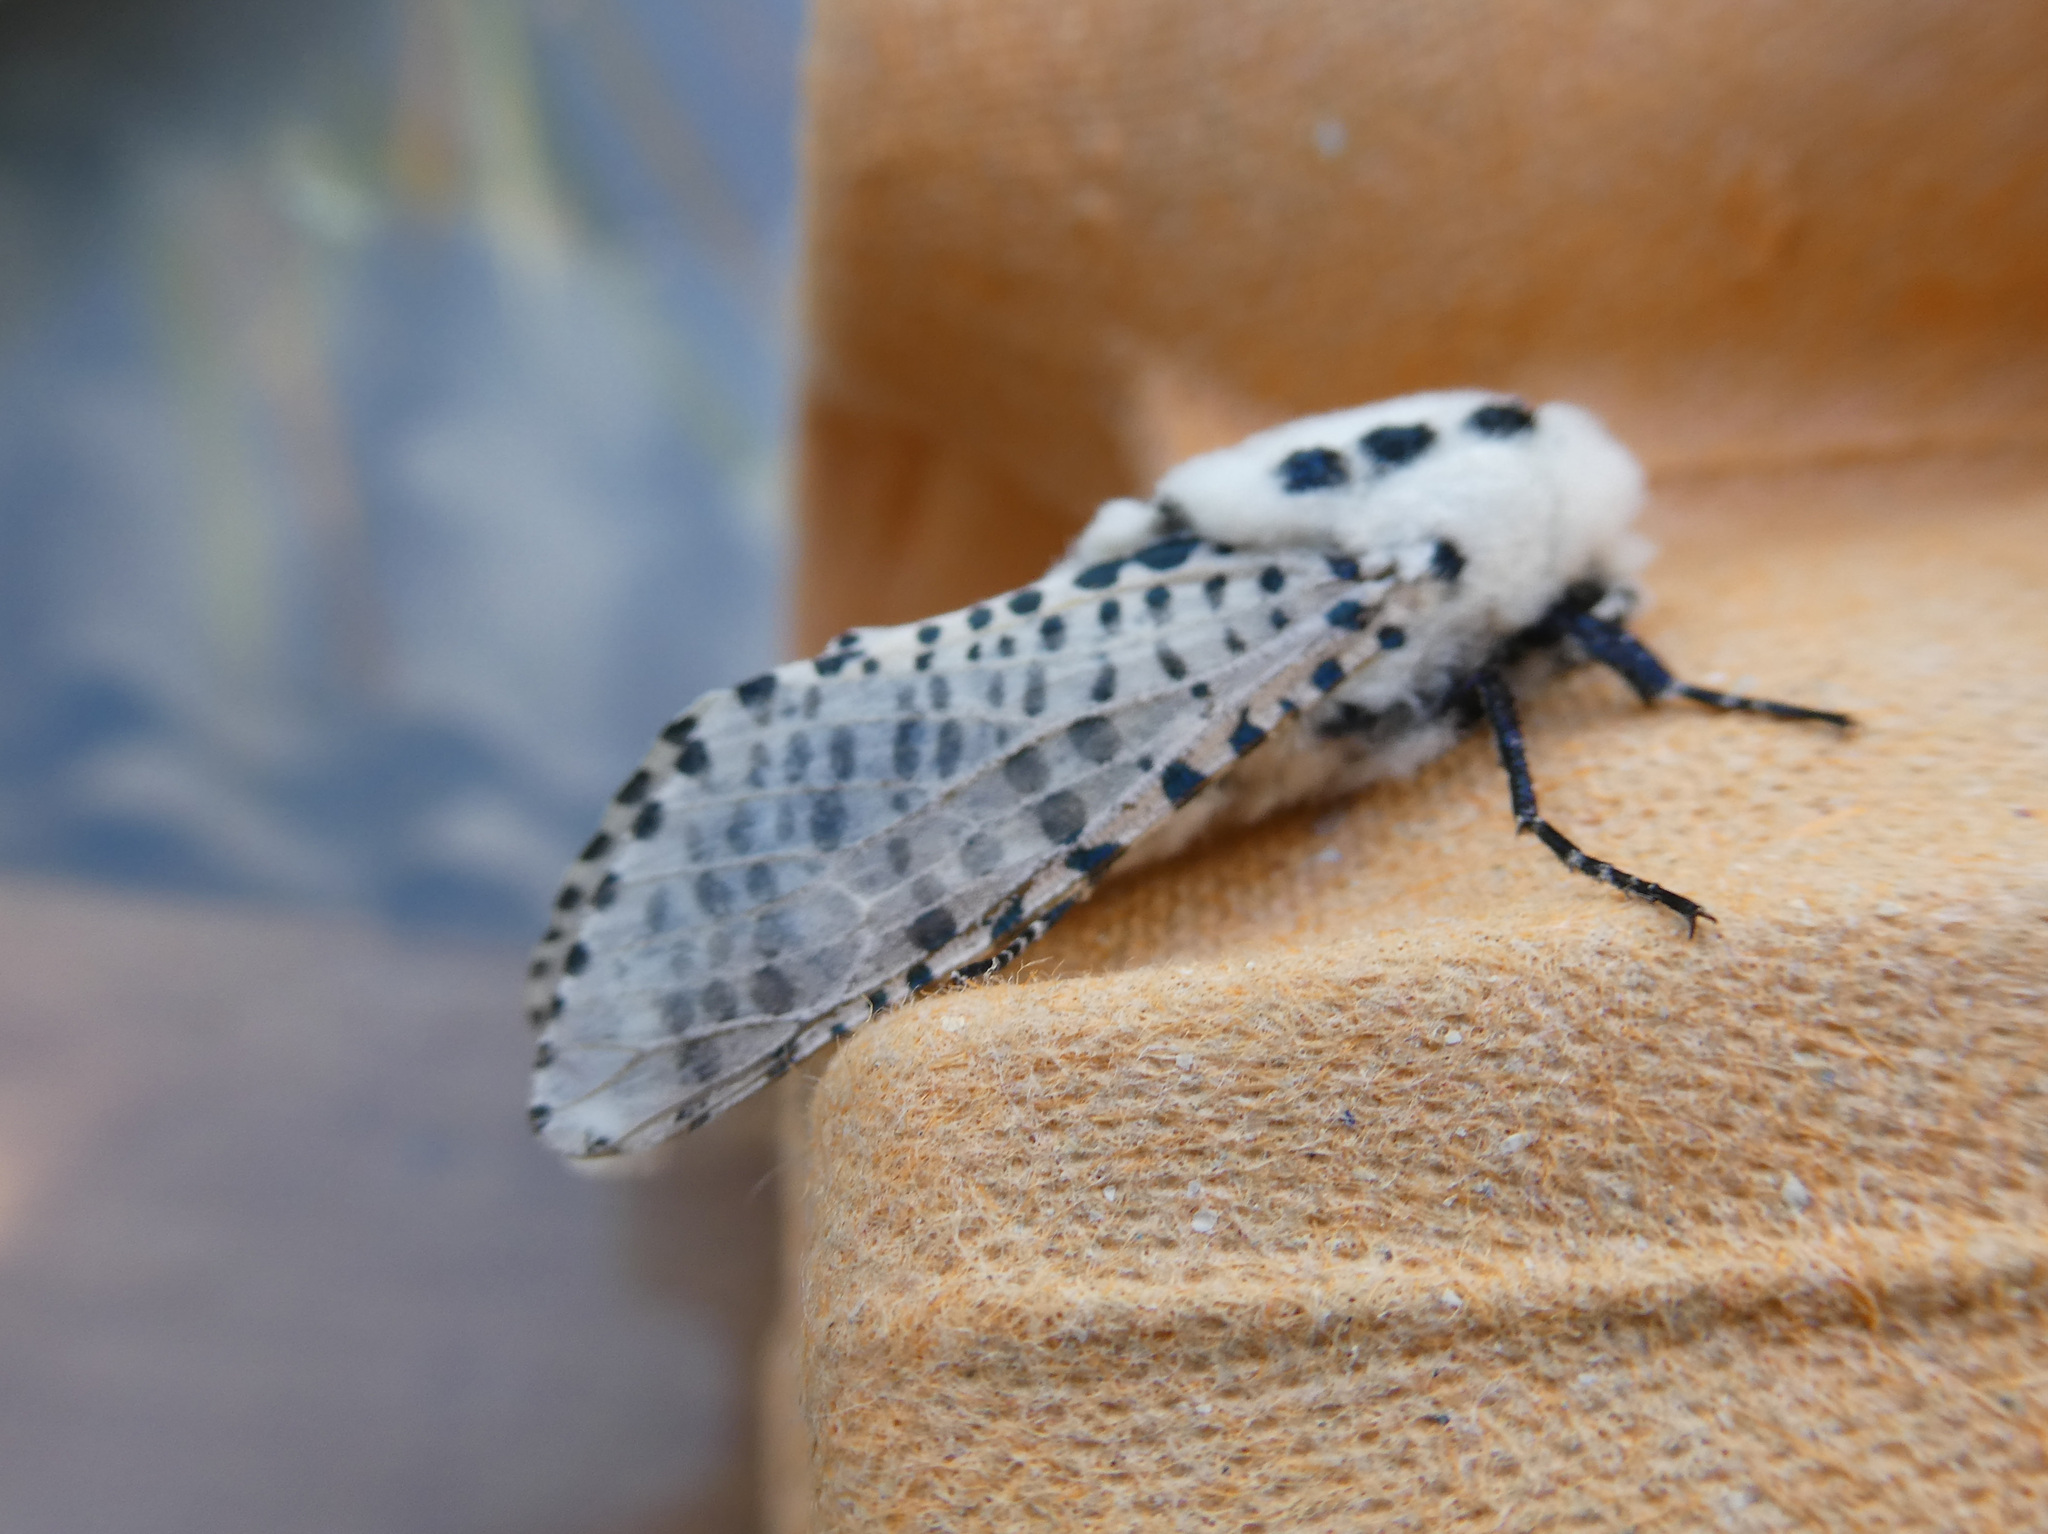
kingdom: Animalia
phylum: Arthropoda
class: Insecta
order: Lepidoptera
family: Cossidae
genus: Zeuzera
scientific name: Zeuzera pyrina
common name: Leopard moth
